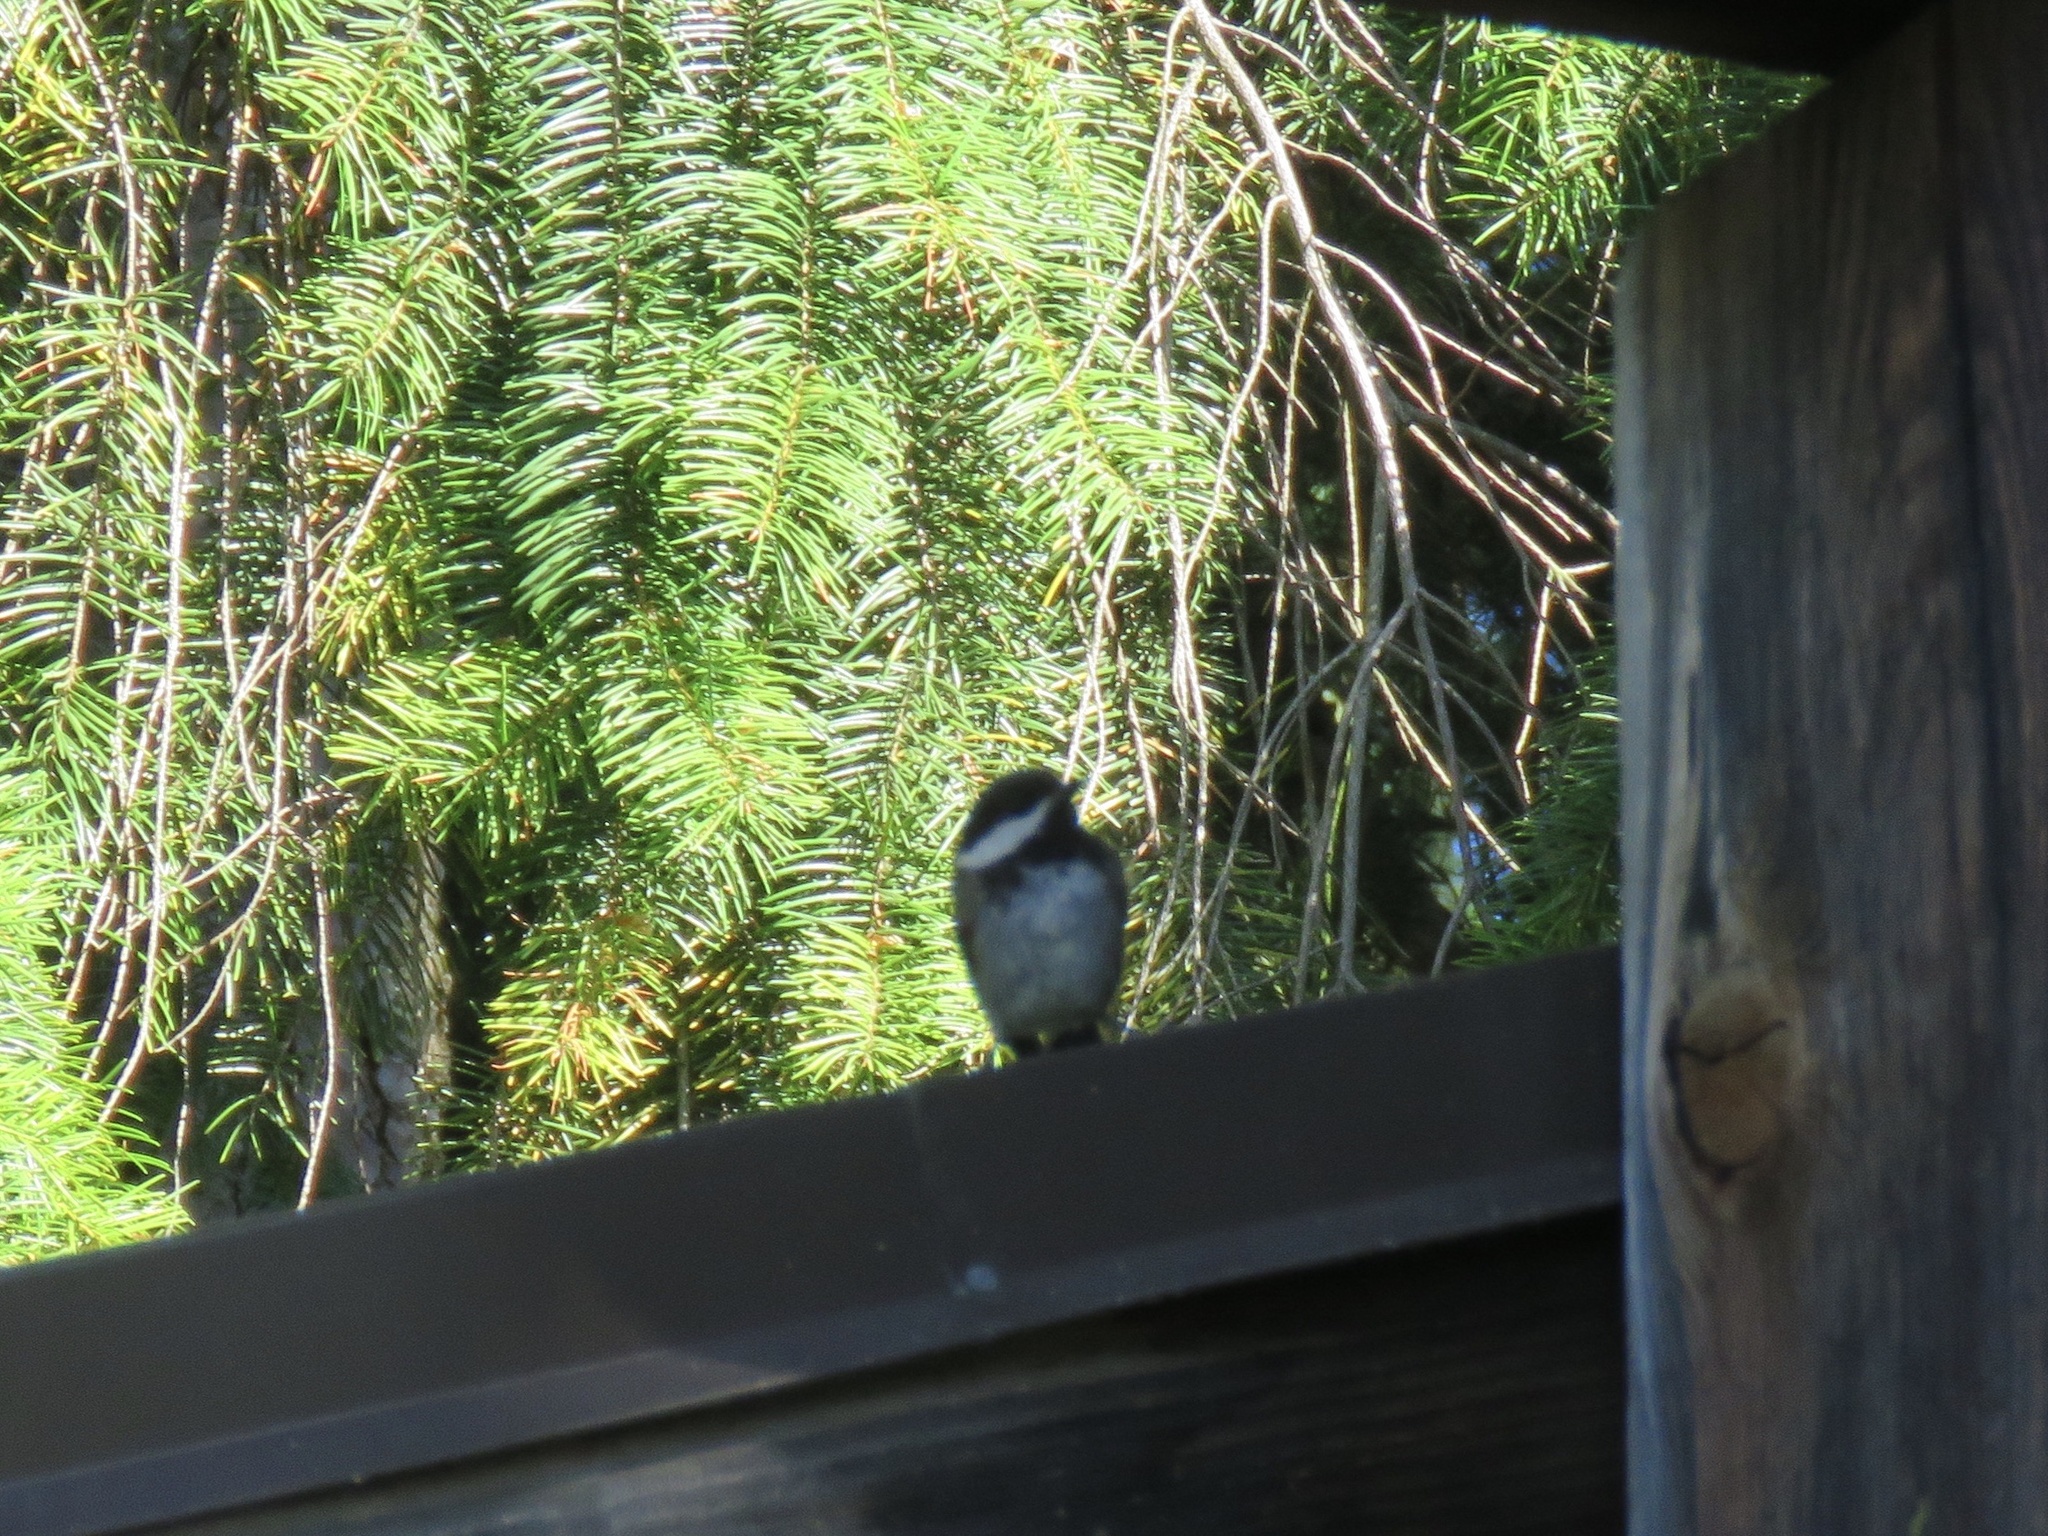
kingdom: Animalia
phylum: Chordata
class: Aves
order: Passeriformes
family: Paridae
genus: Poecile
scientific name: Poecile rufescens
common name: Chestnut-backed chickadee
